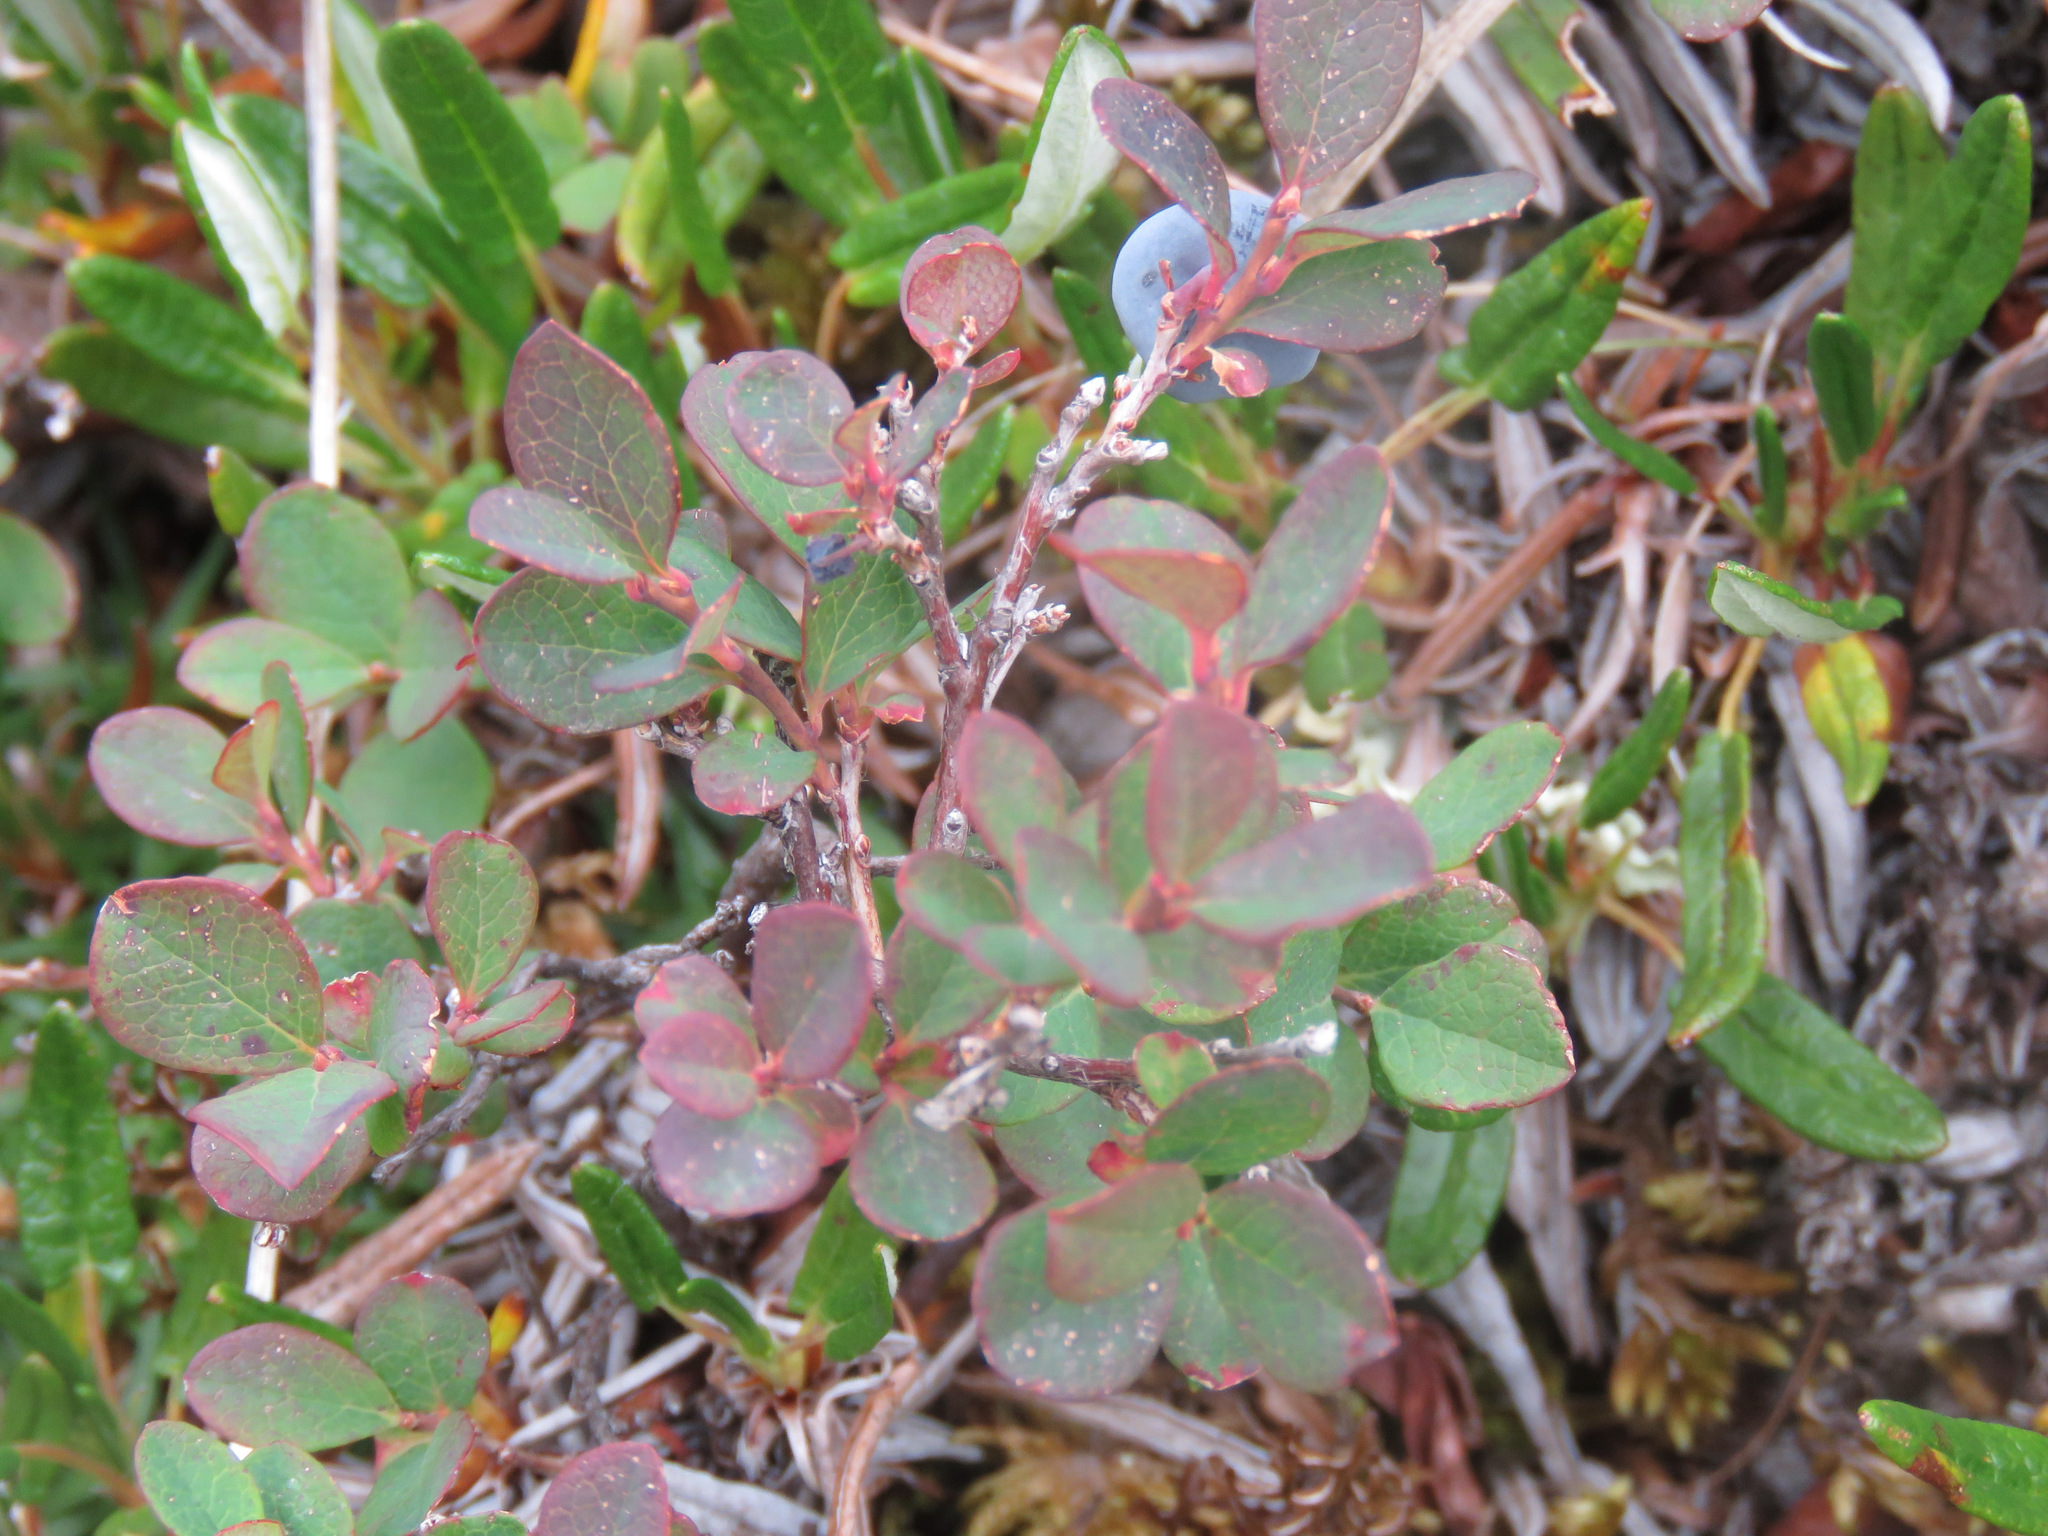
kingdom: Plantae
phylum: Tracheophyta
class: Magnoliopsida
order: Ericales
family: Ericaceae
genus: Vaccinium
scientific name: Vaccinium uliginosum
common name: Bog bilberry
